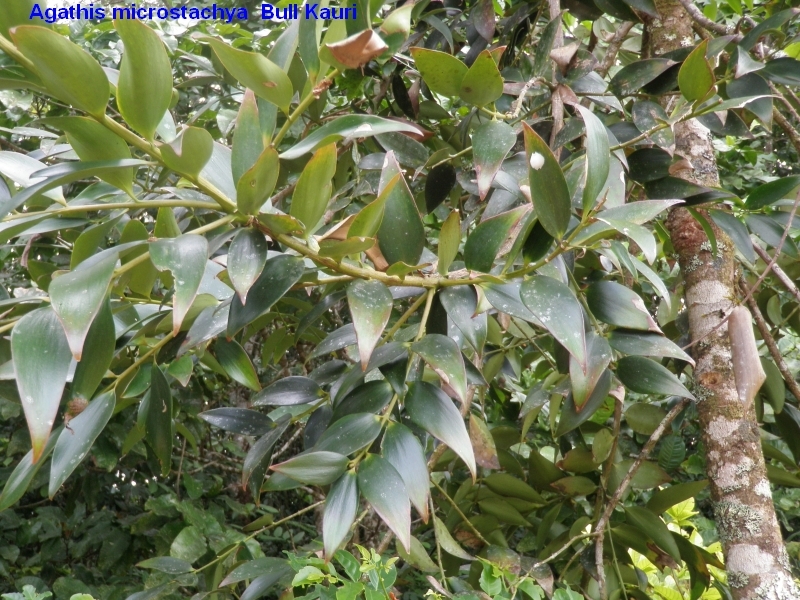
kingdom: Plantae
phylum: Tracheophyta
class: Pinopsida
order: Pinales
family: Araucariaceae
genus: Agathis
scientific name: Agathis microstachya
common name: Bull kauri
